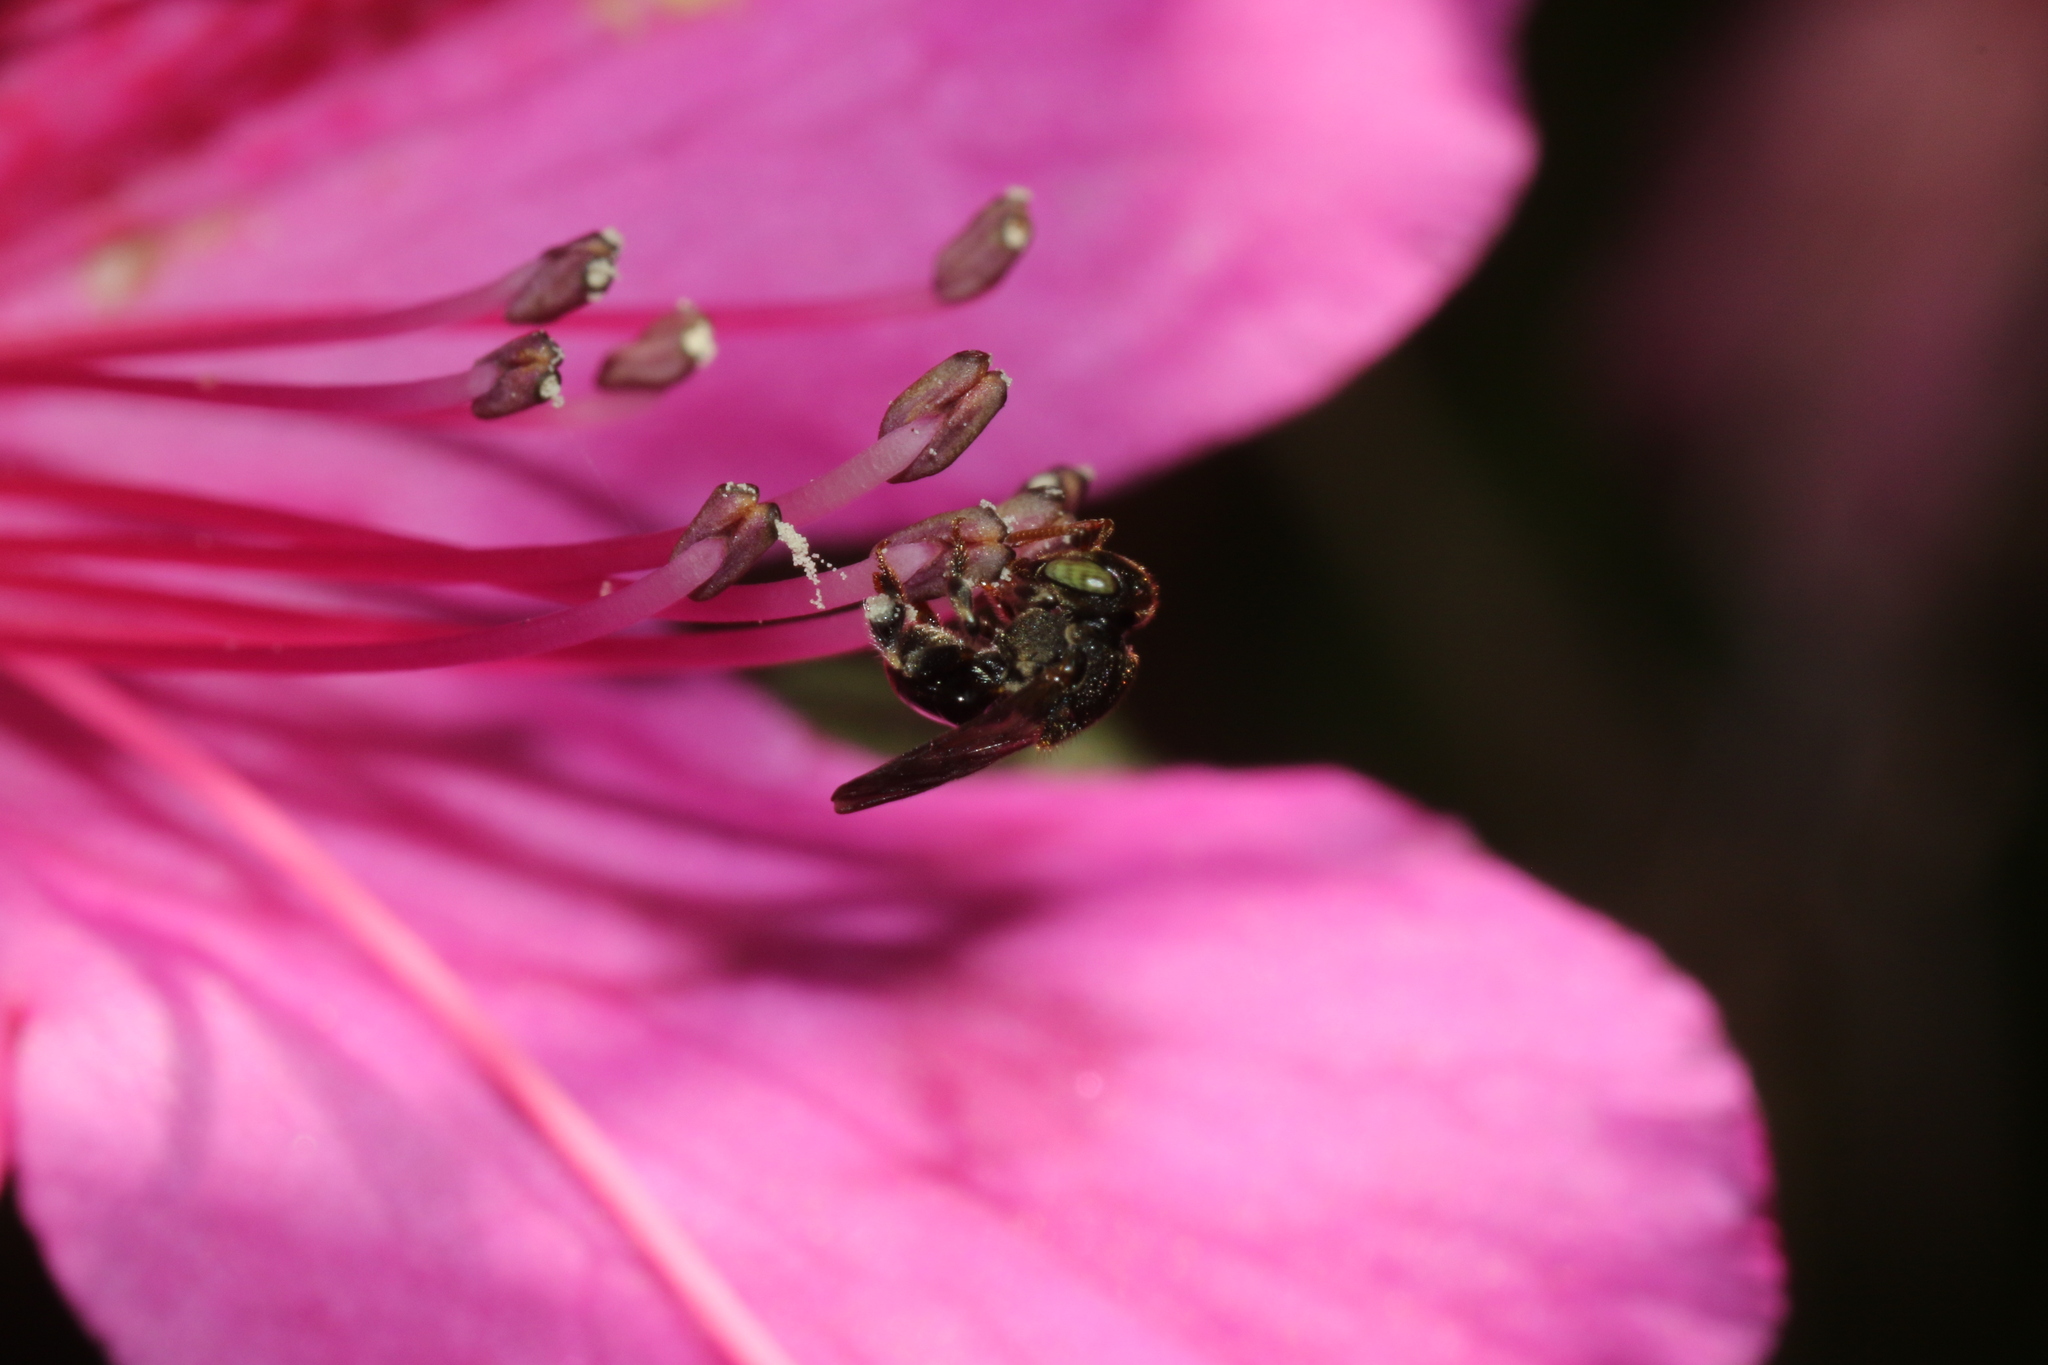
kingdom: Animalia
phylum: Arthropoda
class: Insecta
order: Hymenoptera
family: Apidae
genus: Nannotrigona
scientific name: Nannotrigona testaceicornis
